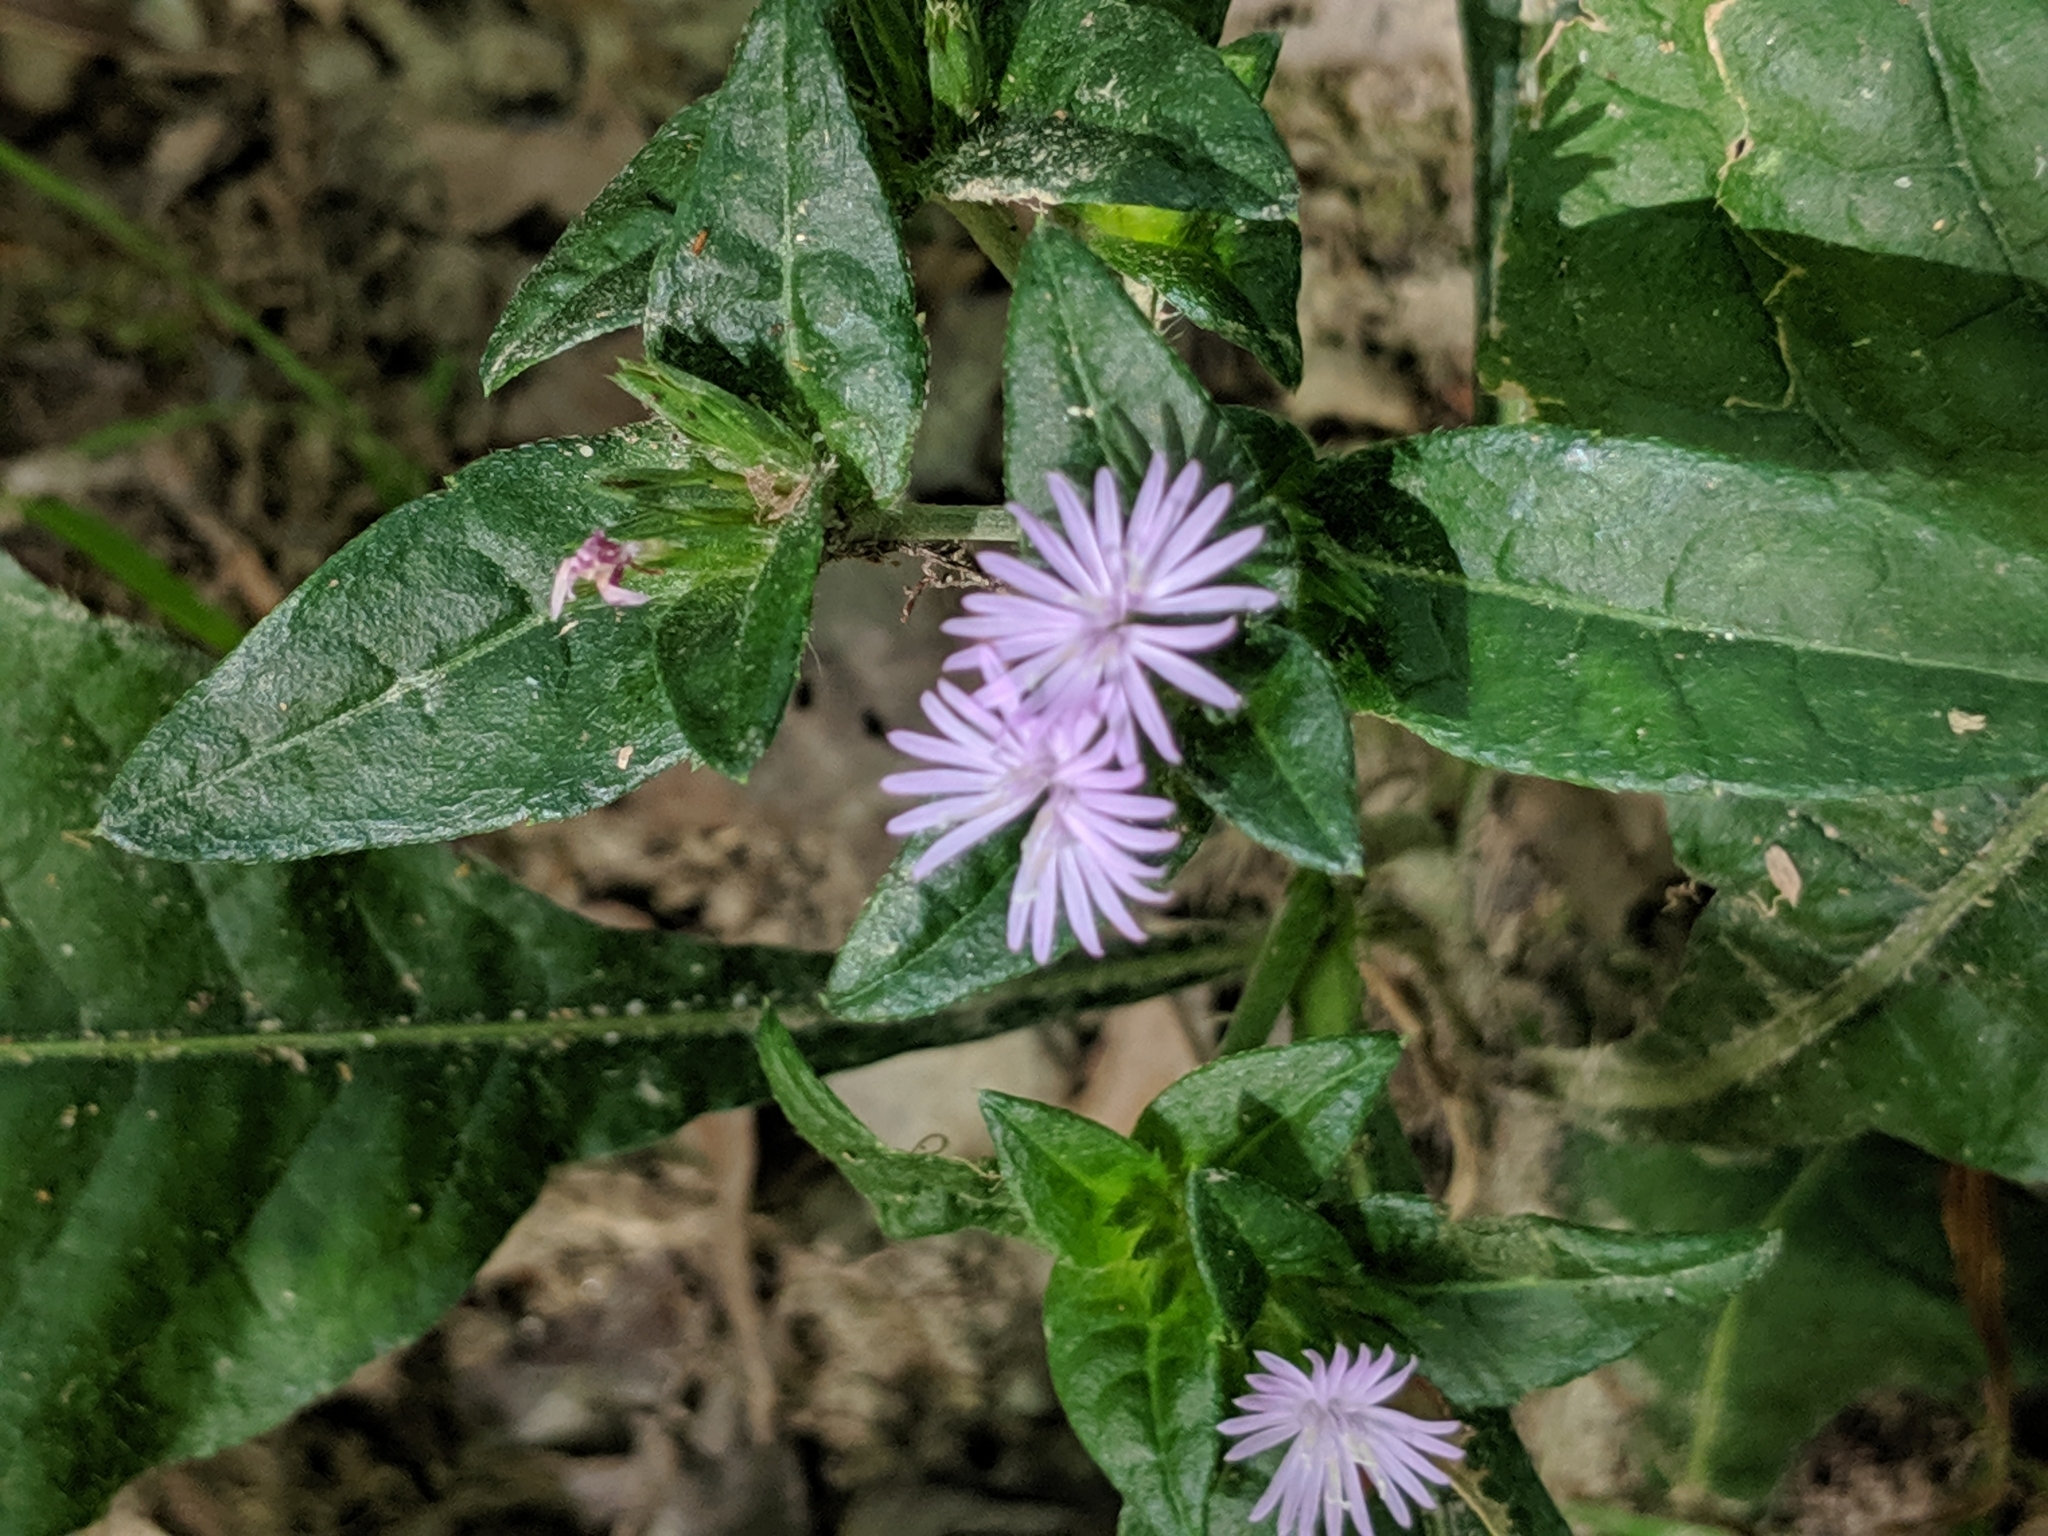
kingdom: Plantae
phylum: Tracheophyta
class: Magnoliopsida
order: Asterales
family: Asteraceae
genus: Elephantopus
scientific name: Elephantopus carolinianus
